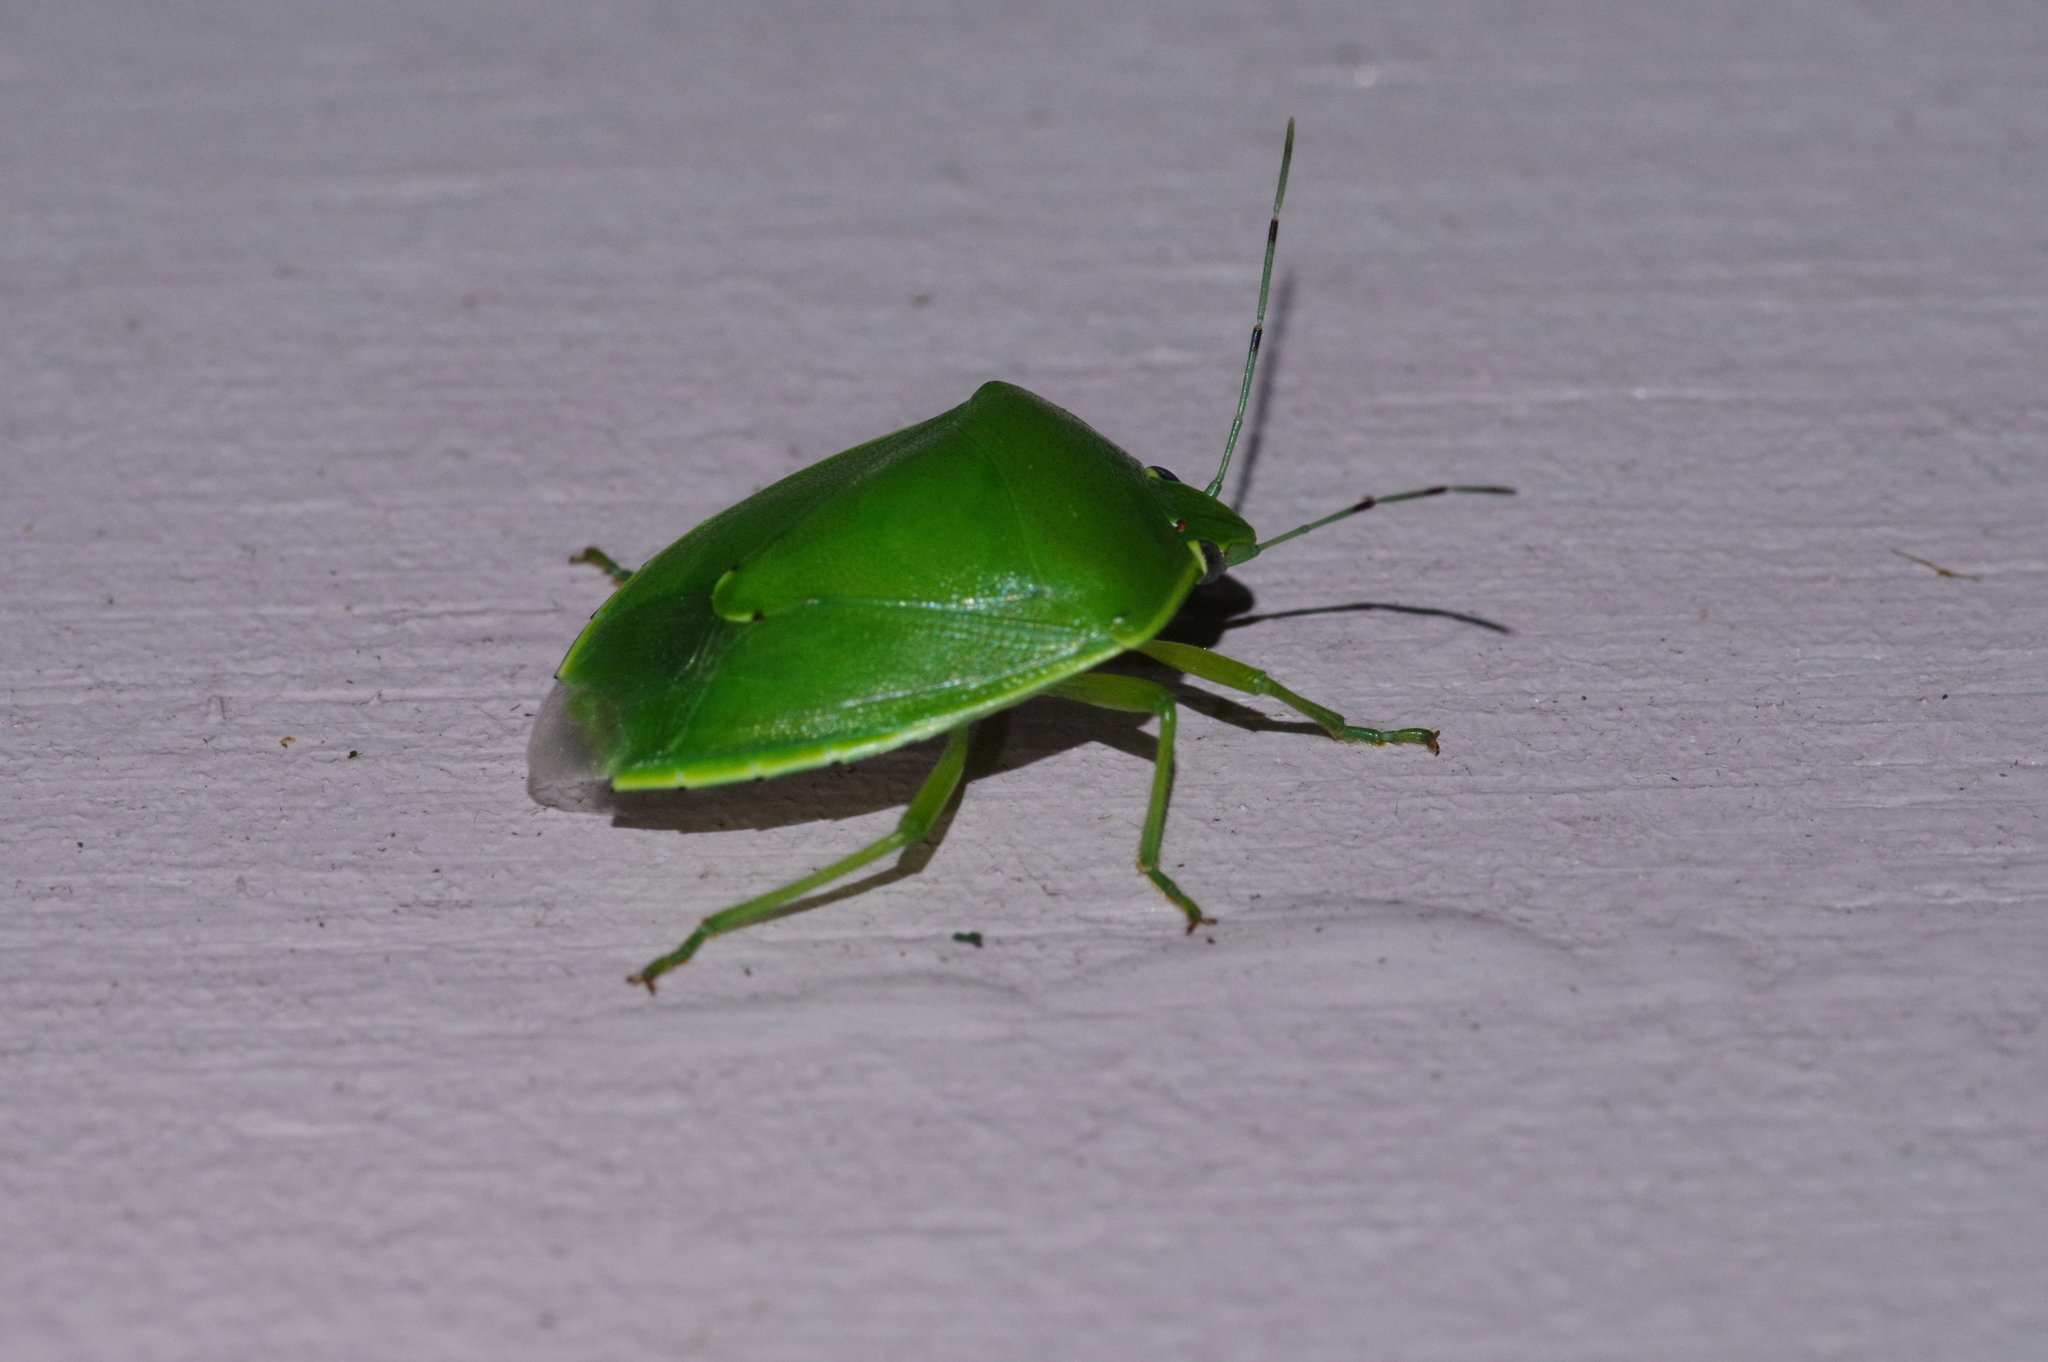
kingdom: Animalia
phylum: Arthropoda
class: Insecta
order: Hemiptera
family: Pentatomidae
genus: Glaucias
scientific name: Glaucias subpunctatus
